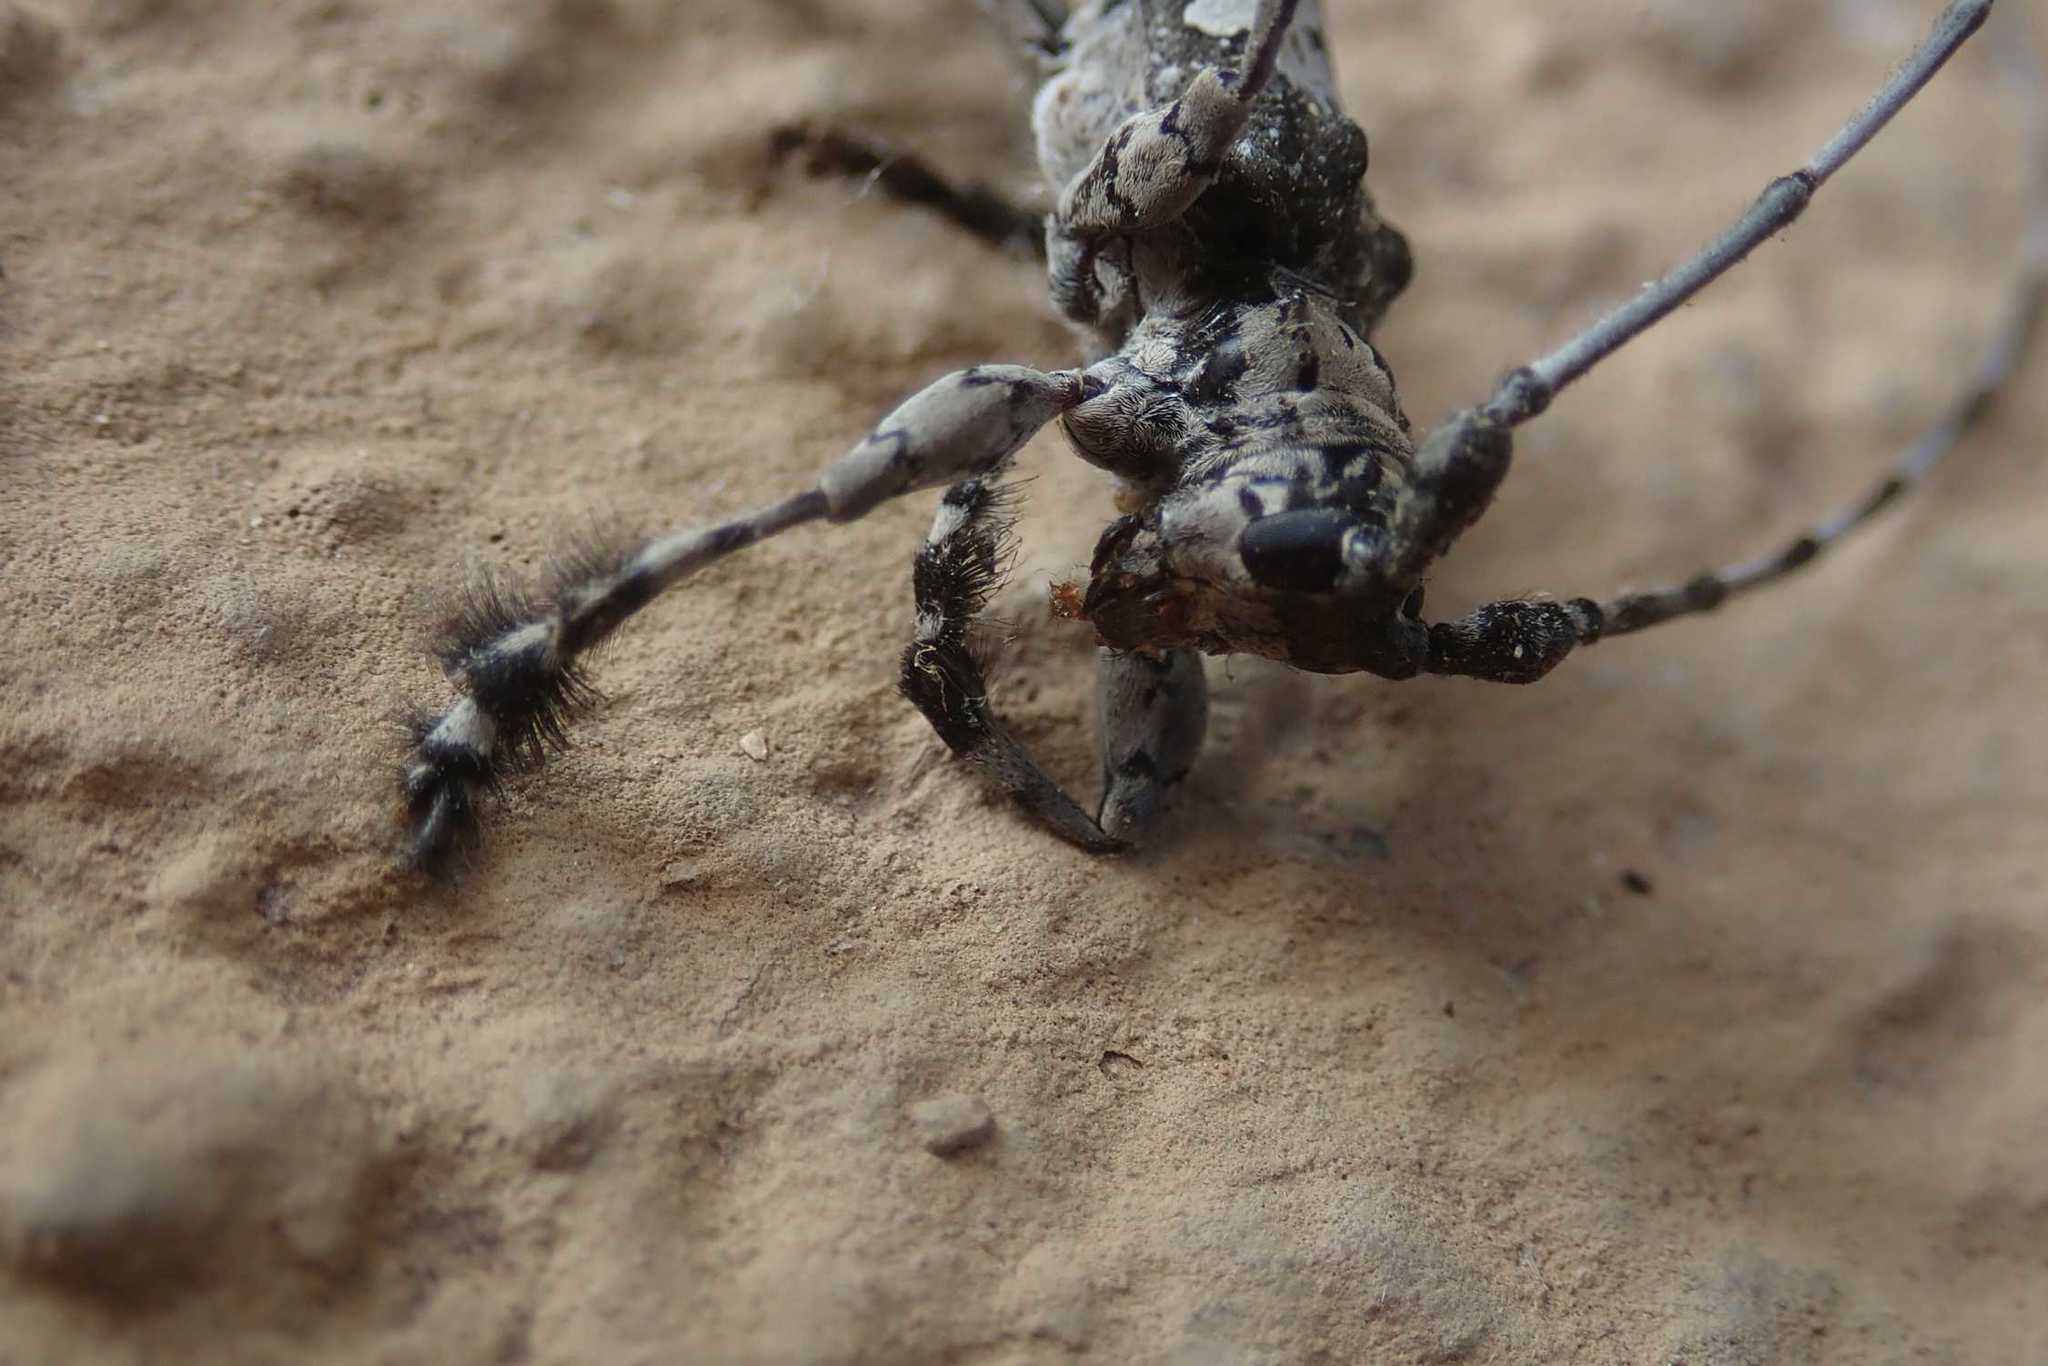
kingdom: Animalia
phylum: Arthropoda
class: Insecta
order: Coleoptera
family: Cerambycidae
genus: Lasiopezus
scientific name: Lasiopezus nigromaculatus
